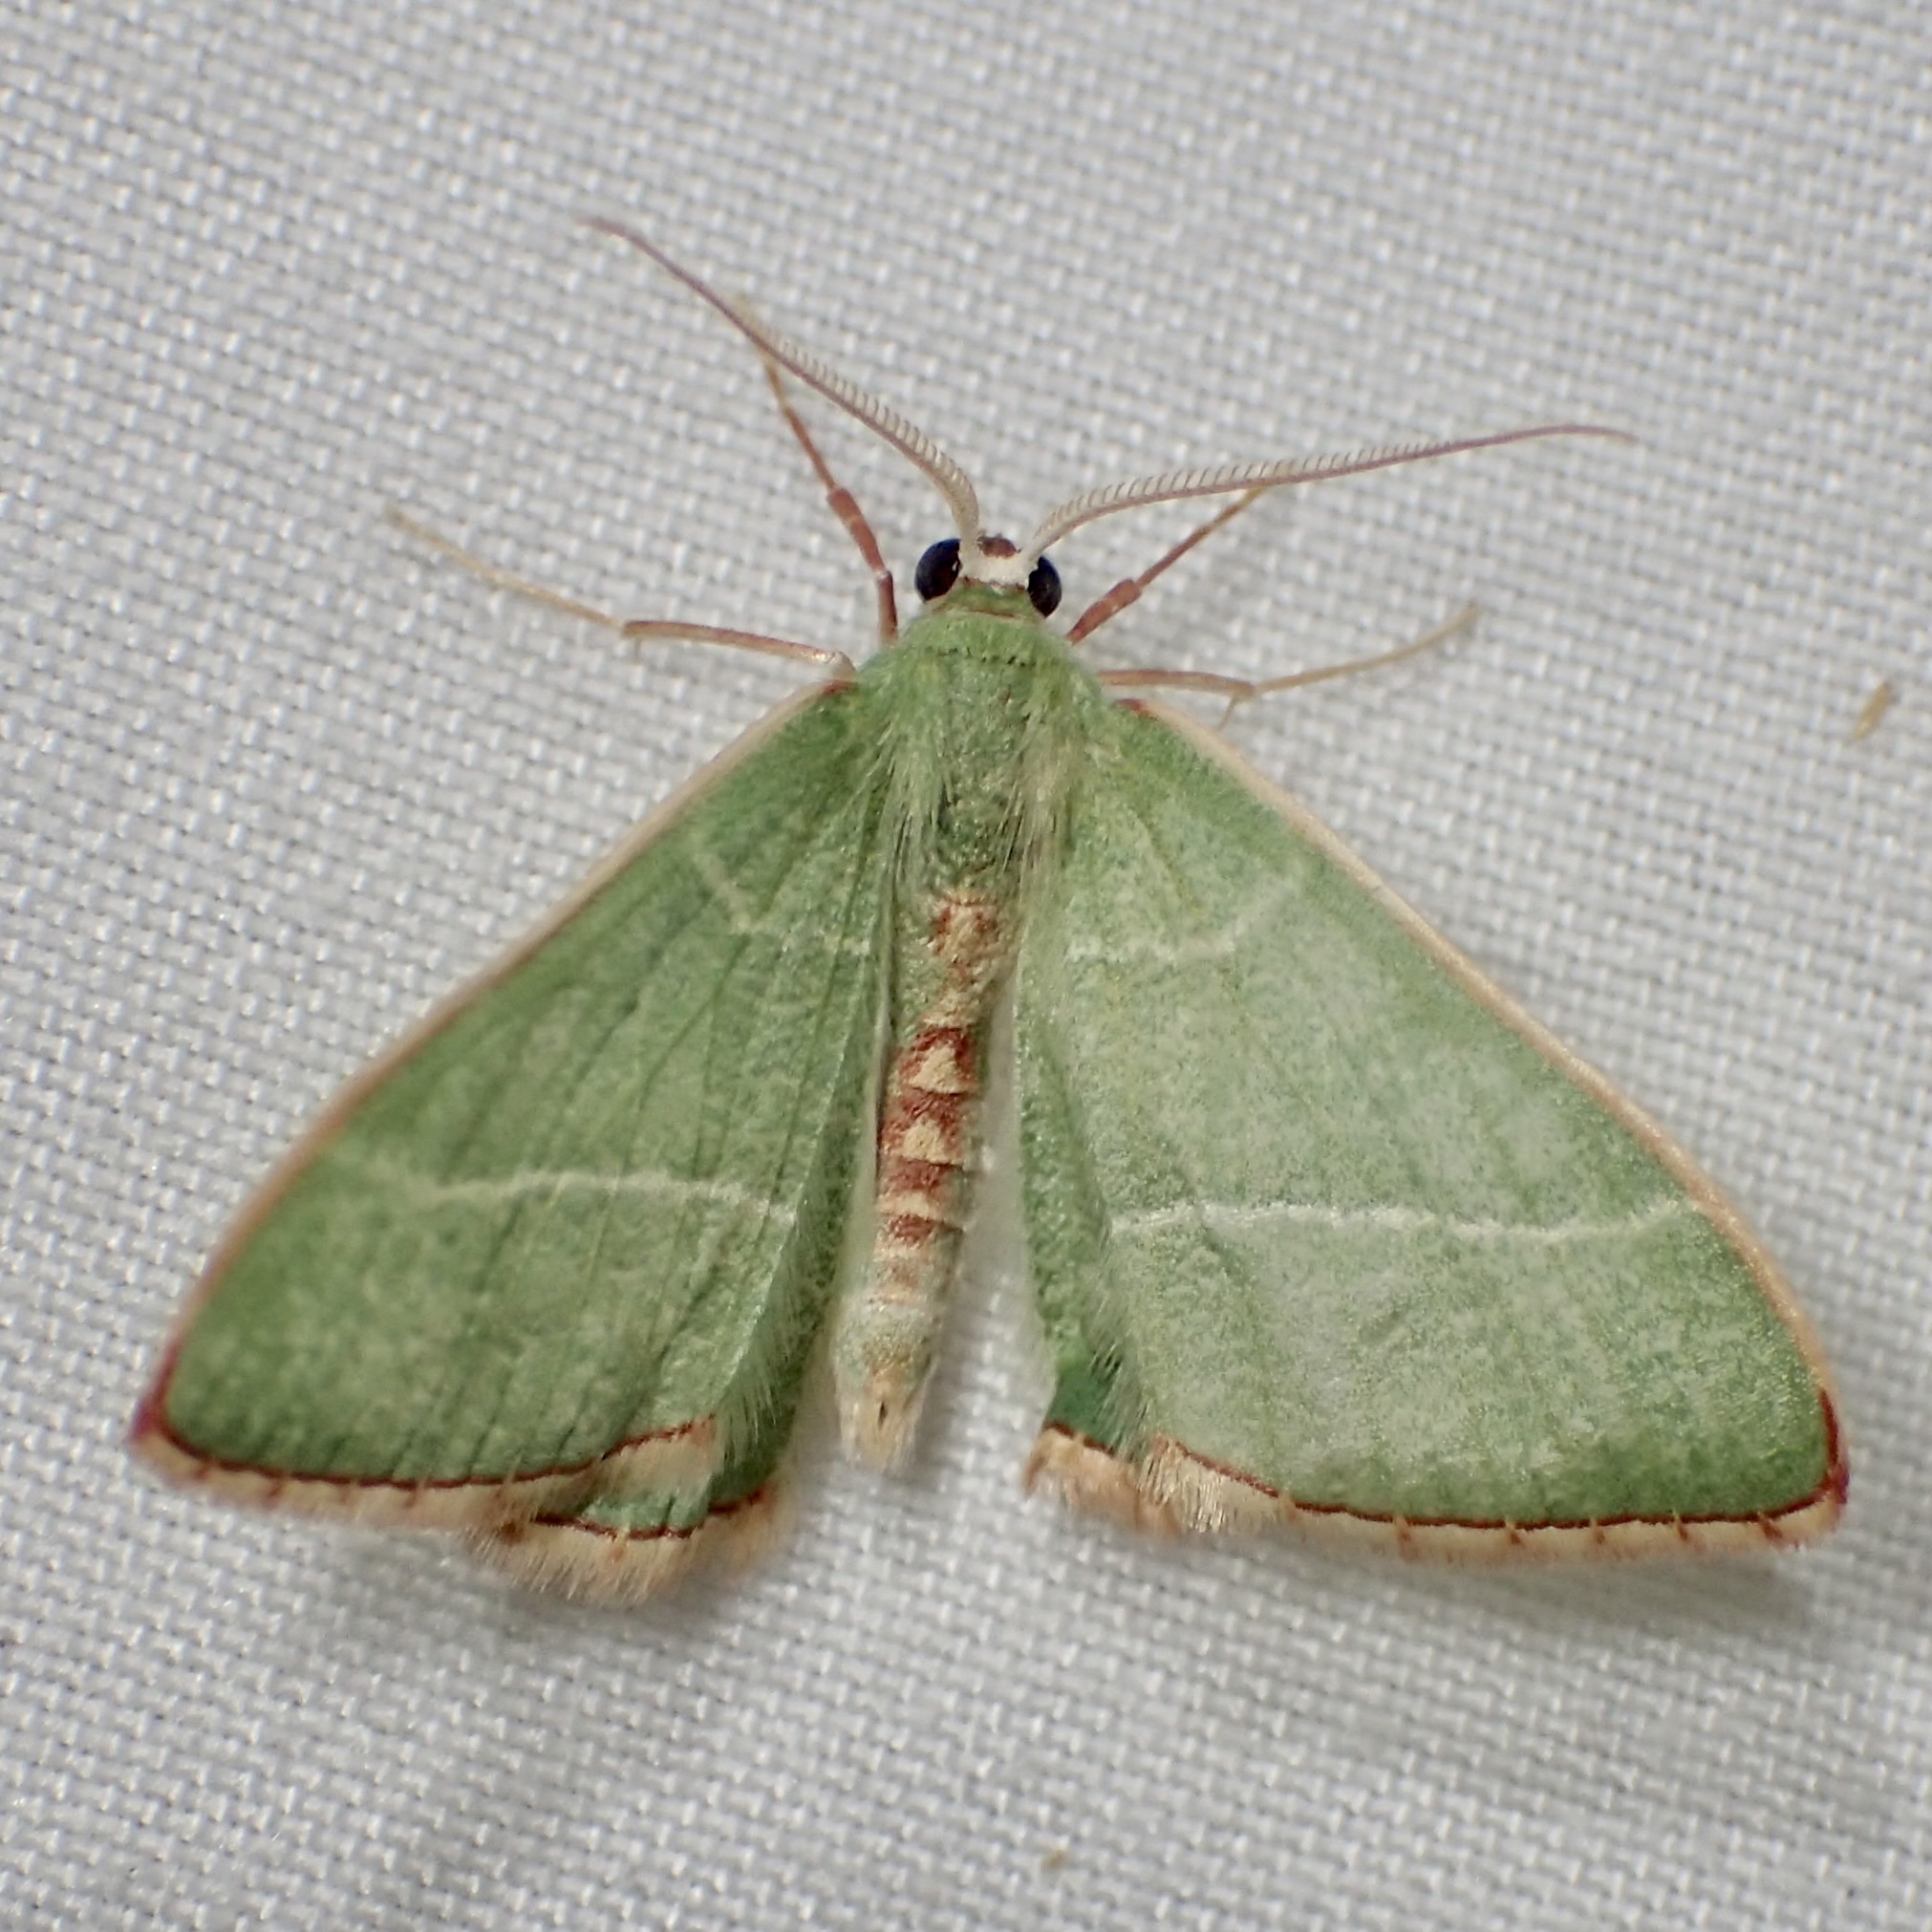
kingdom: Animalia
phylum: Arthropoda
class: Insecta
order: Lepidoptera
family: Geometridae
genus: Nemoria
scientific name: Nemoria festaria
